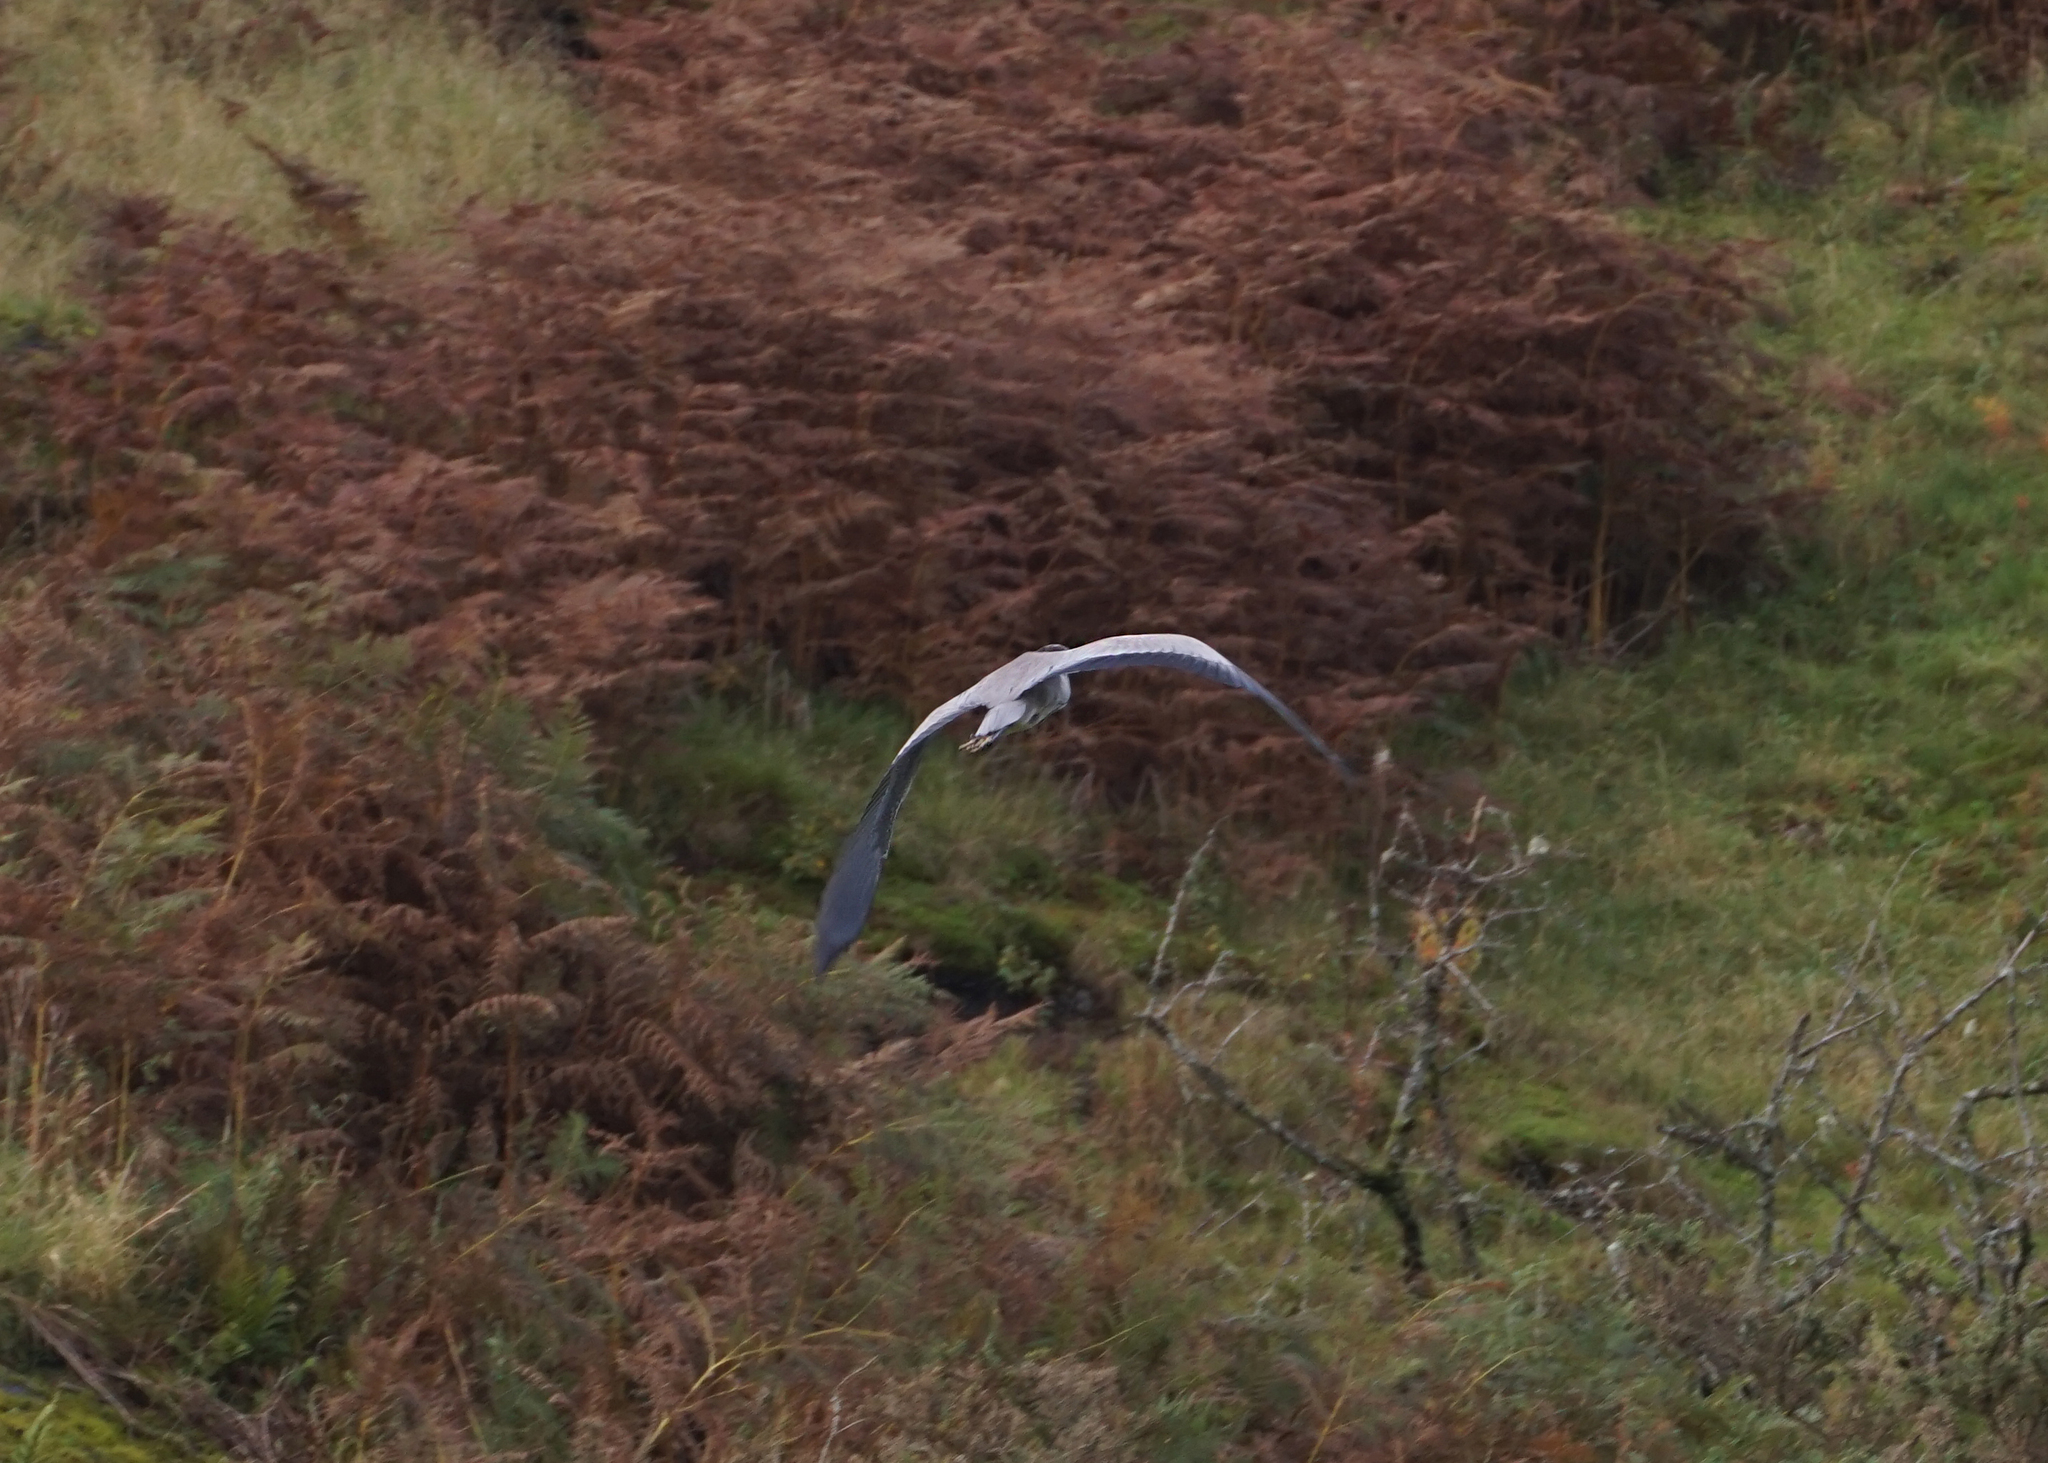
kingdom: Animalia
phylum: Chordata
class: Aves
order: Pelecaniformes
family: Ardeidae
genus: Ardea
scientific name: Ardea cinerea
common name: Grey heron
